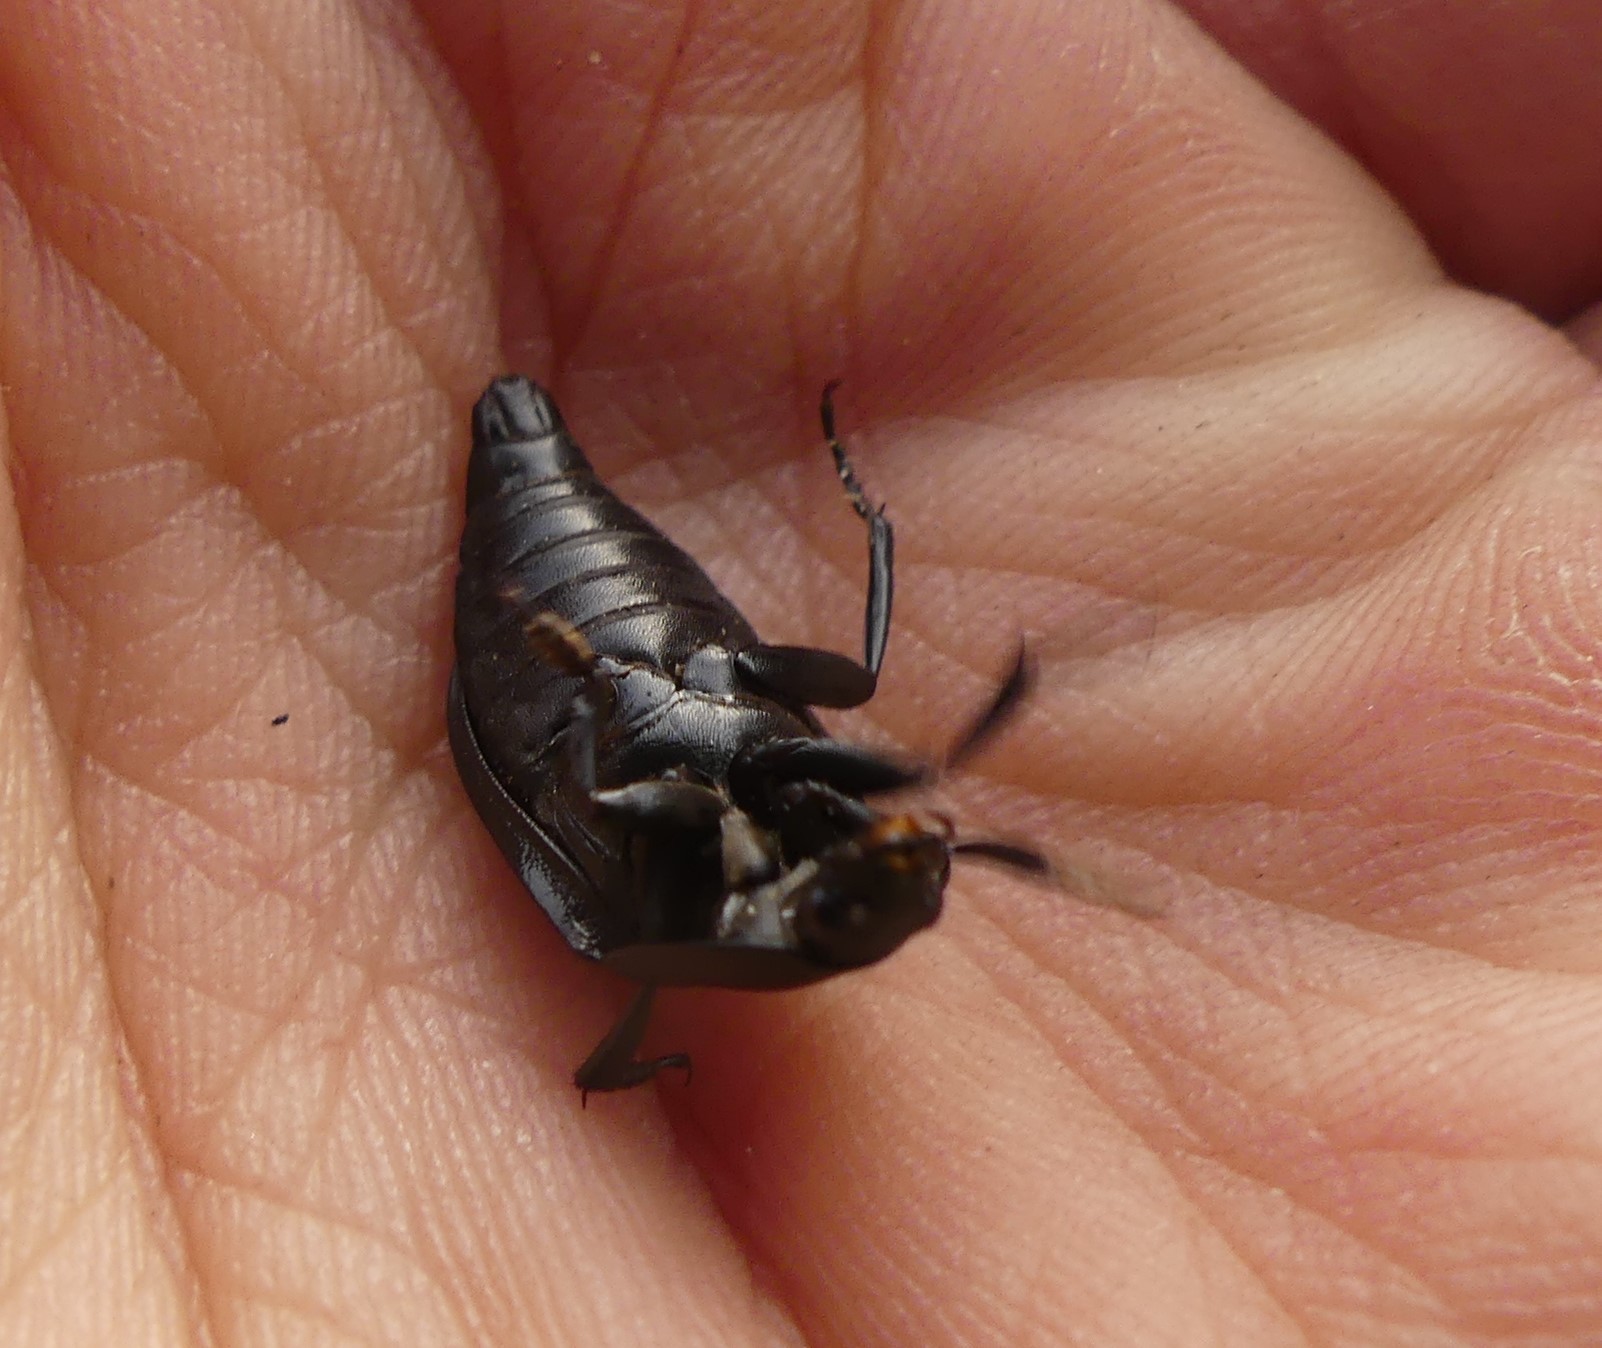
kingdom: Animalia
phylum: Arthropoda
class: Insecta
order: Coleoptera
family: Staphylinidae
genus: Silpha
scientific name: Silpha obscura
